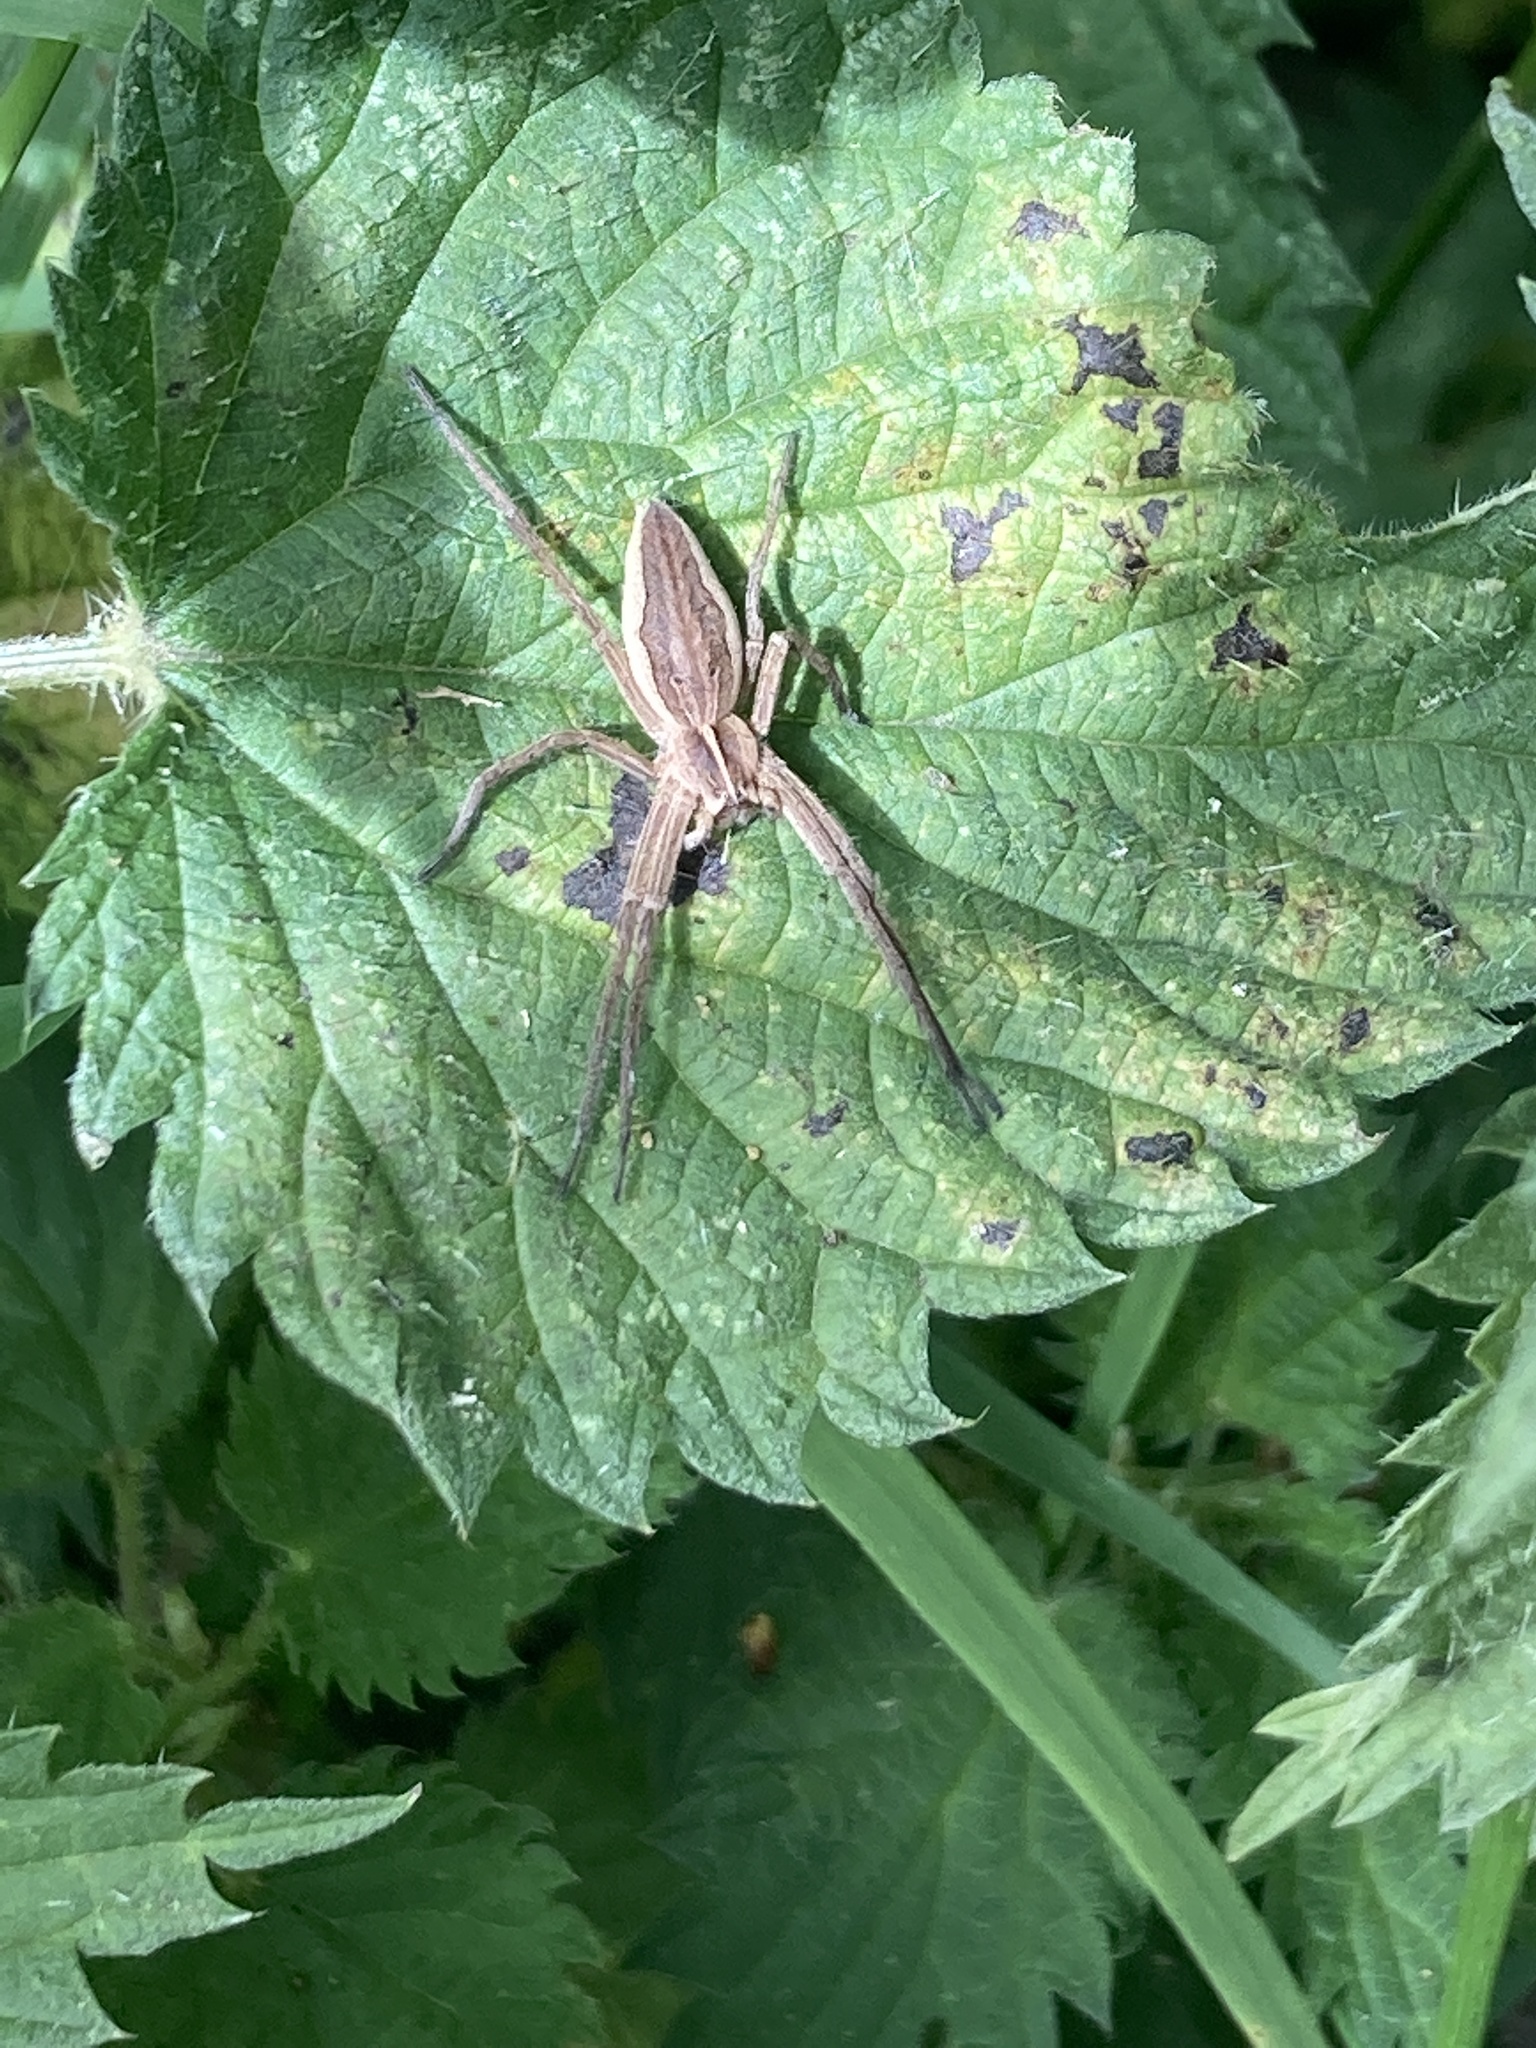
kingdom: Animalia
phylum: Arthropoda
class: Arachnida
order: Araneae
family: Pisauridae
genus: Pisaura
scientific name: Pisaura mirabilis
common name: Tent spider
